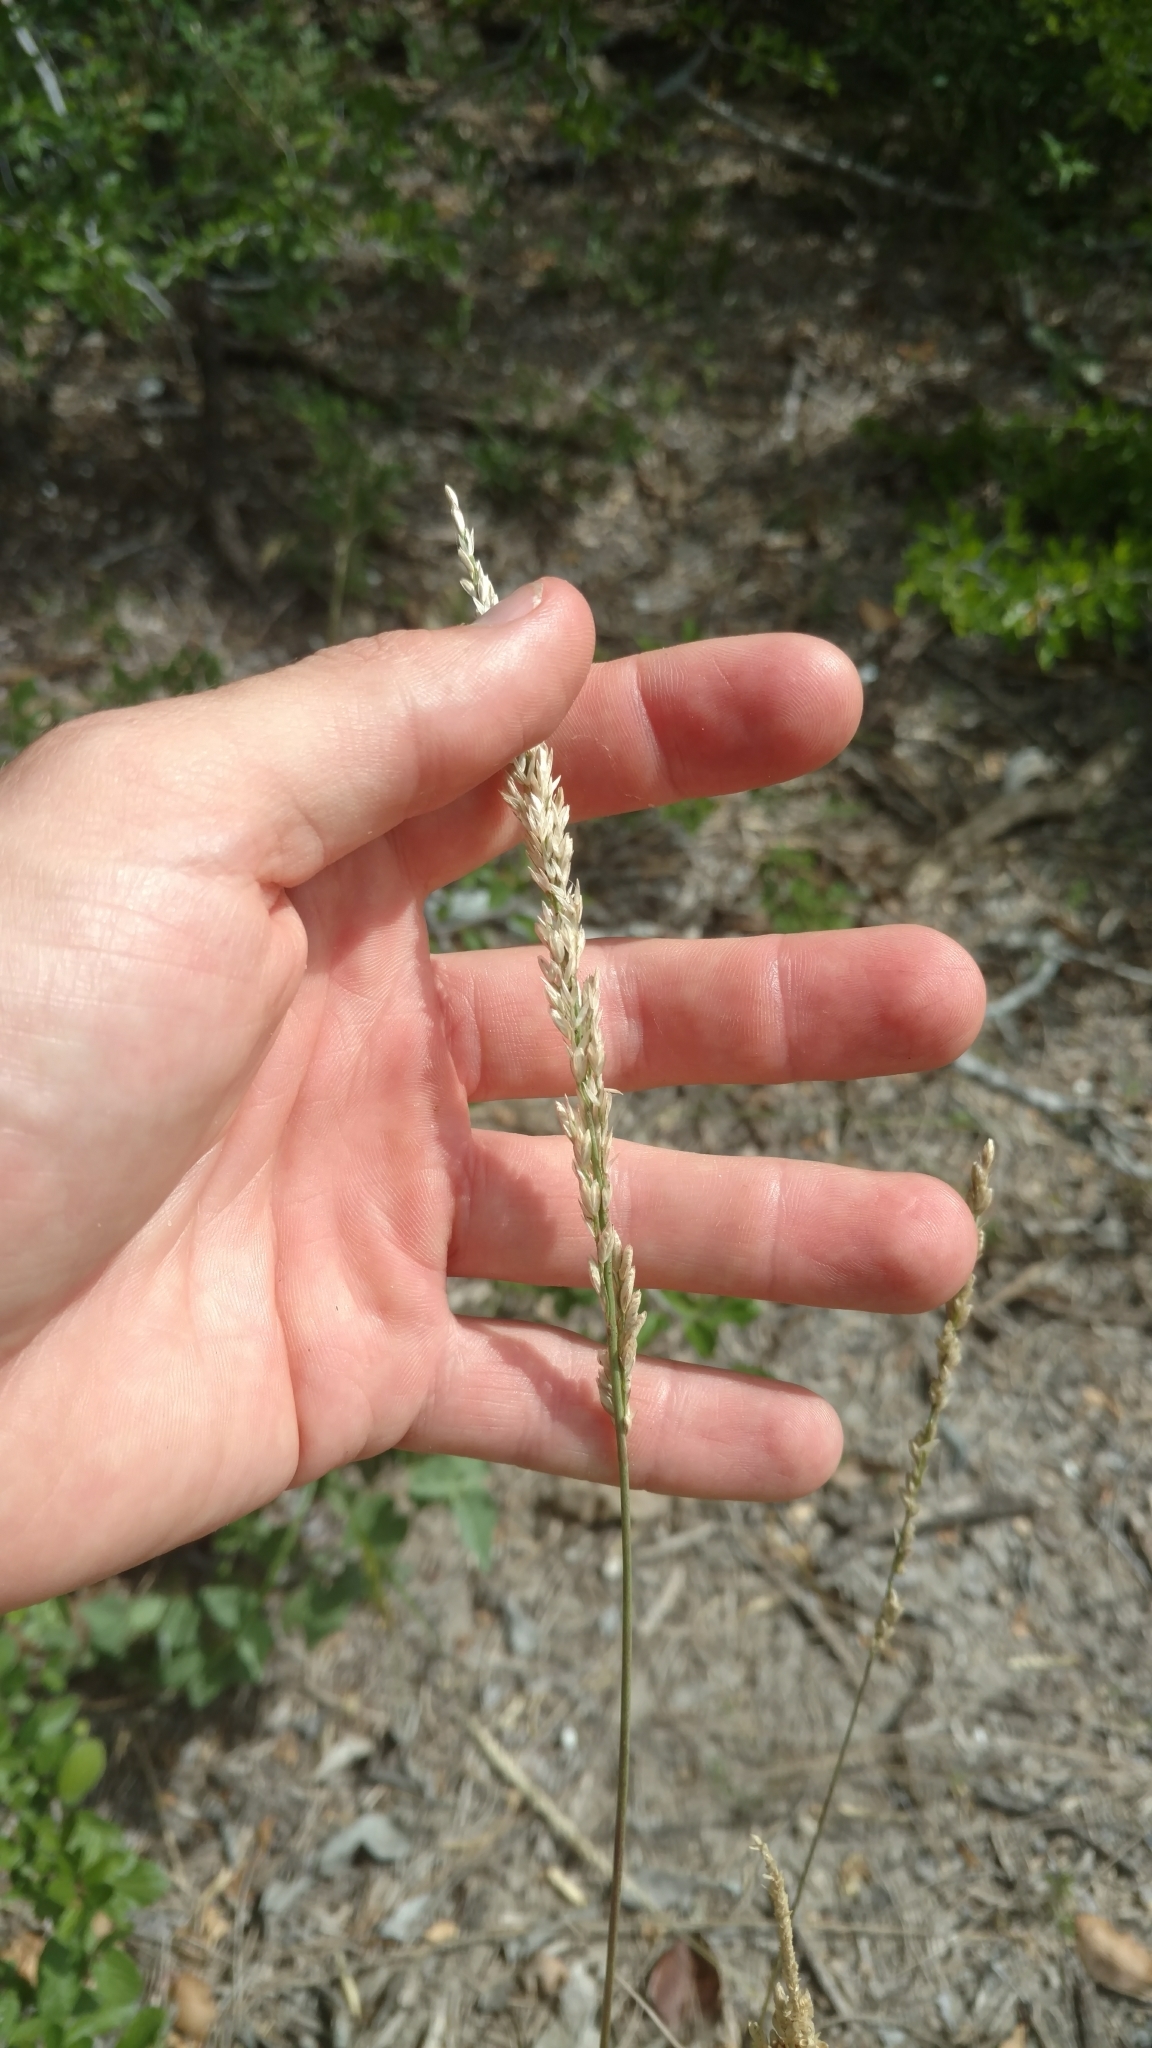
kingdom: Plantae
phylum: Tracheophyta
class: Liliopsida
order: Poales
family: Poaceae
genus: Tridens
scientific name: Tridens albescens
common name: White tridens
